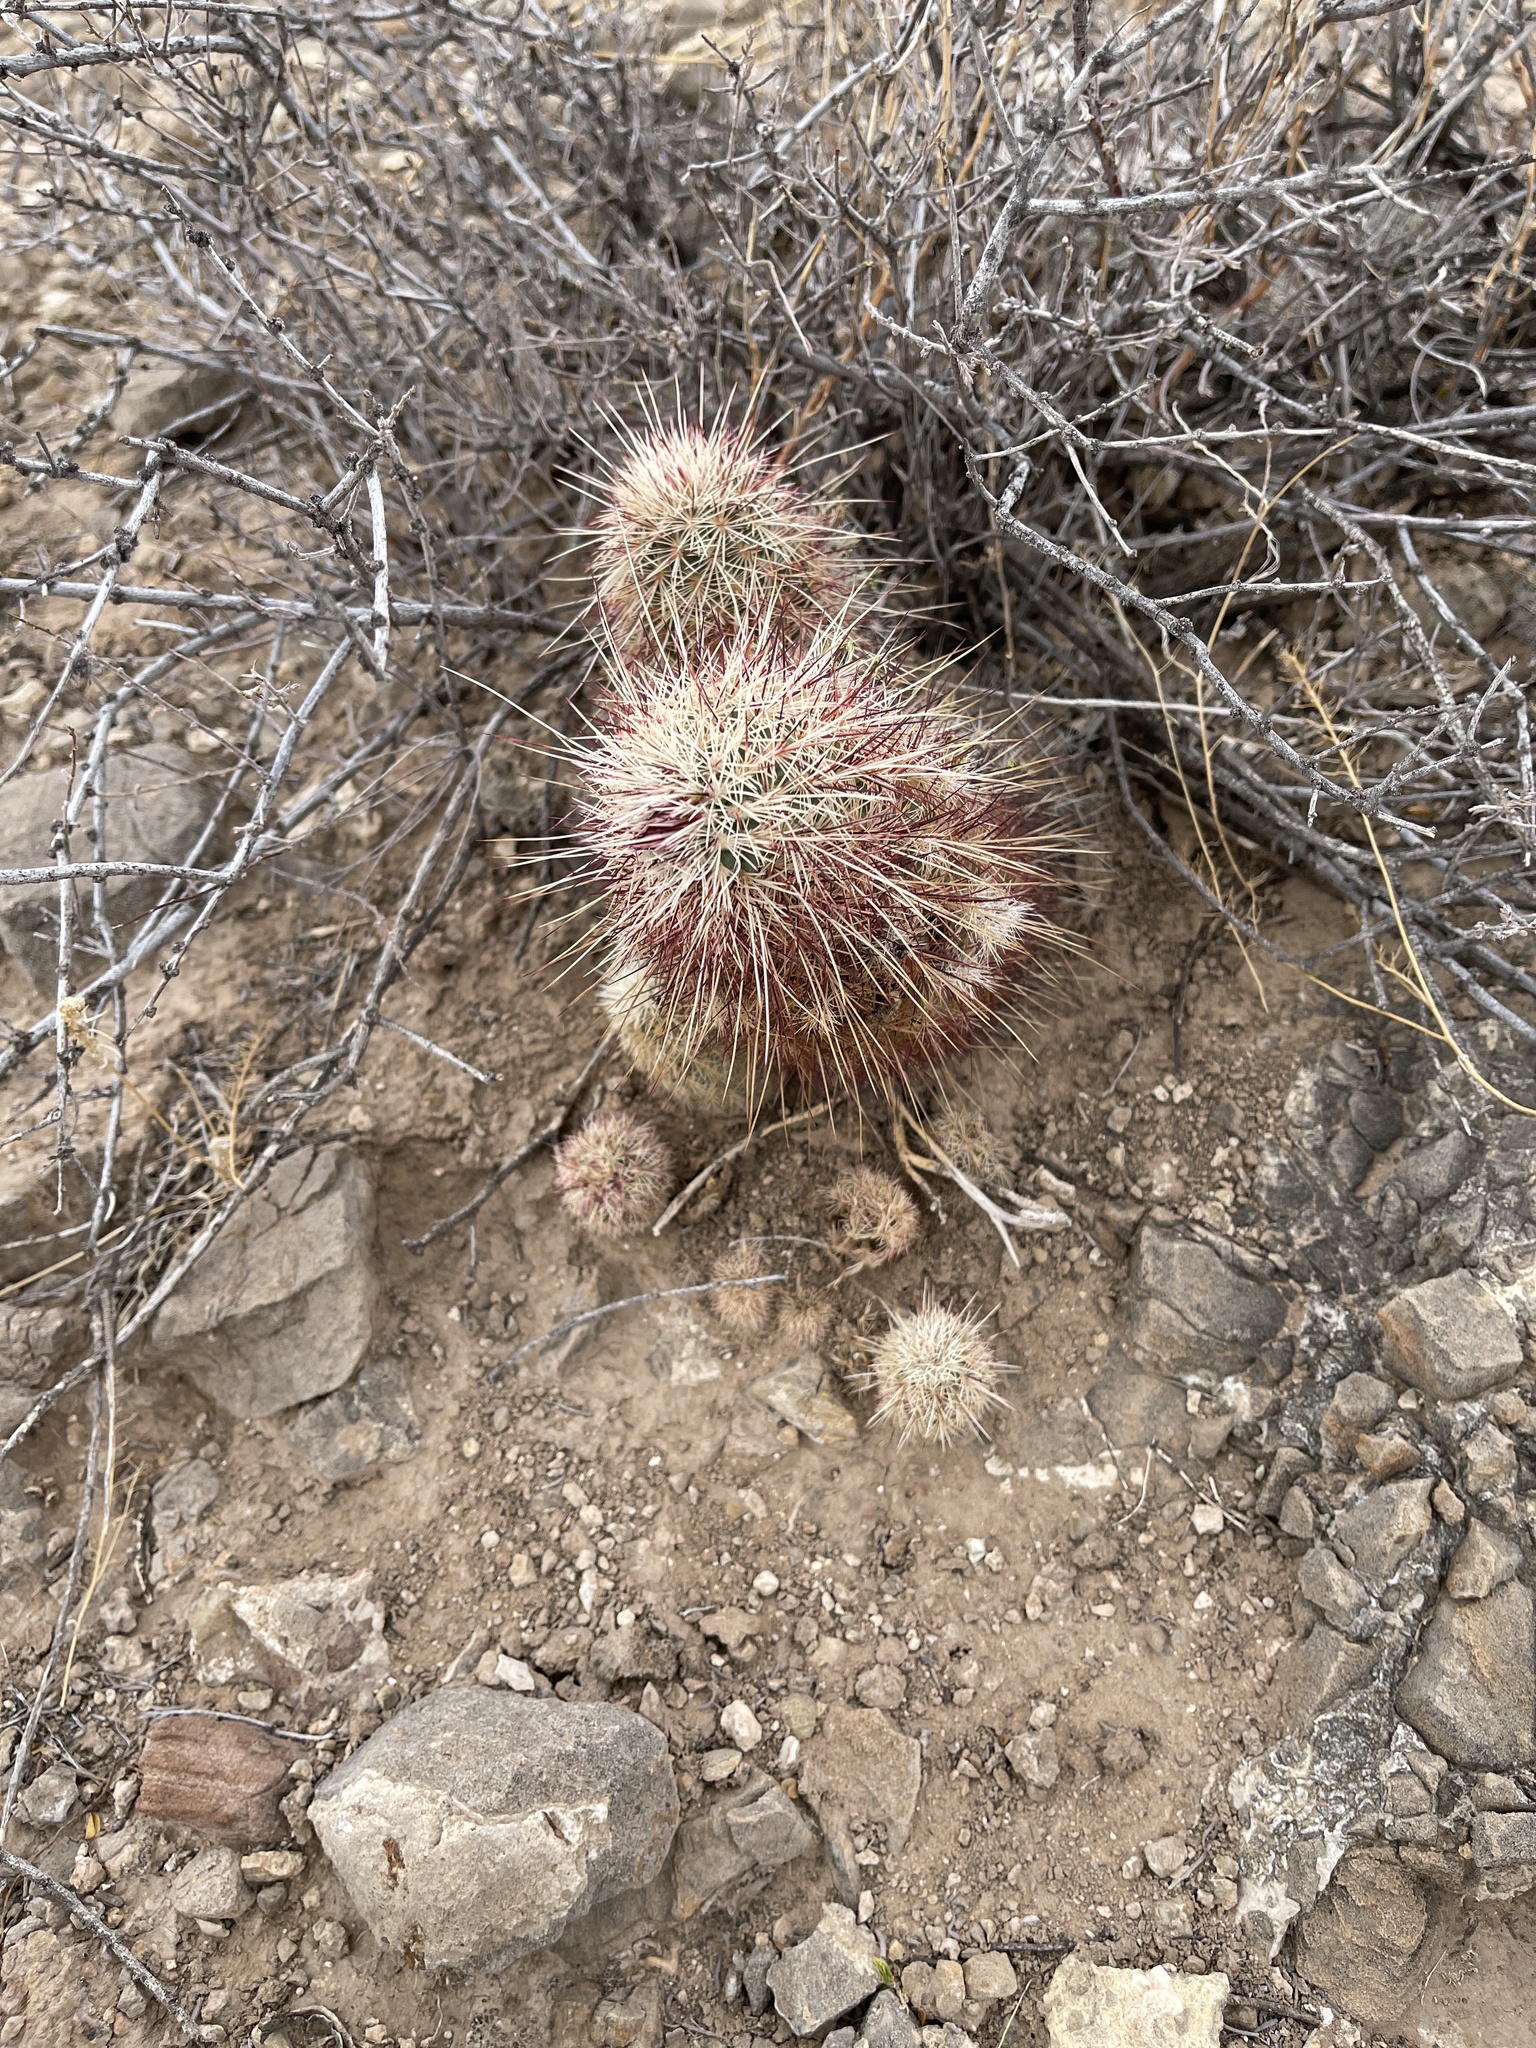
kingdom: Plantae
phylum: Tracheophyta
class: Magnoliopsida
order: Caryophyllales
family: Cactaceae
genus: Echinocereus
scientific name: Echinocereus viridiflorus
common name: Nylon hedgehog cactus
